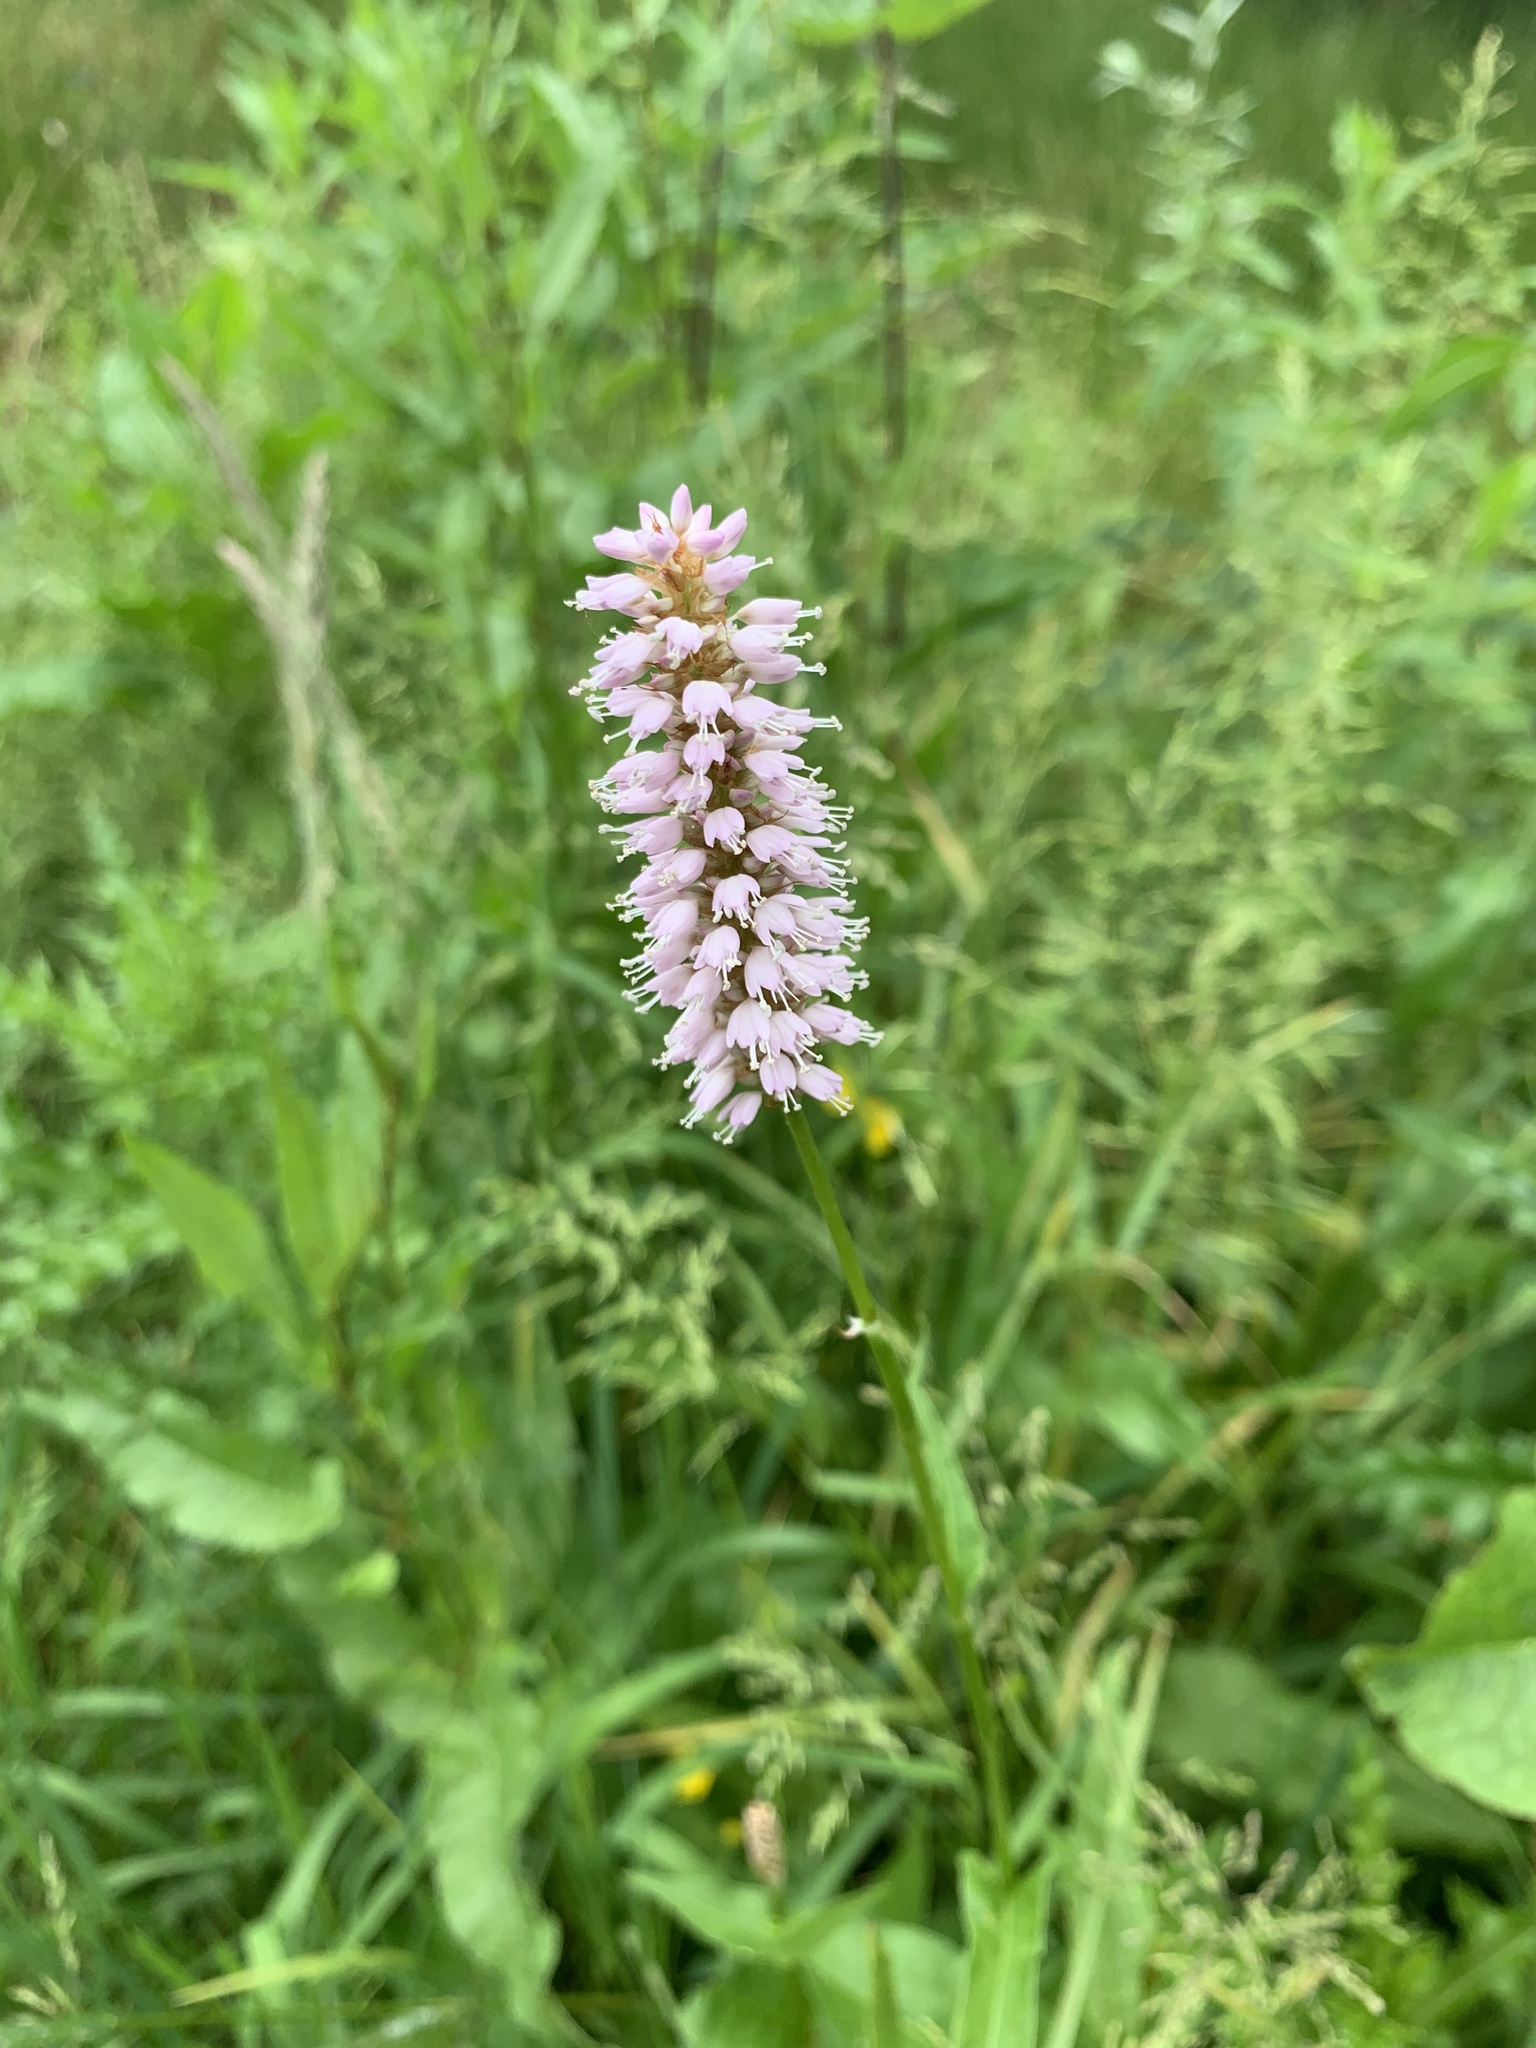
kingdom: Plantae
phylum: Tracheophyta
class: Magnoliopsida
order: Caryophyllales
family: Polygonaceae
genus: Bistorta
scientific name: Bistorta officinalis
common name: Common bistort
